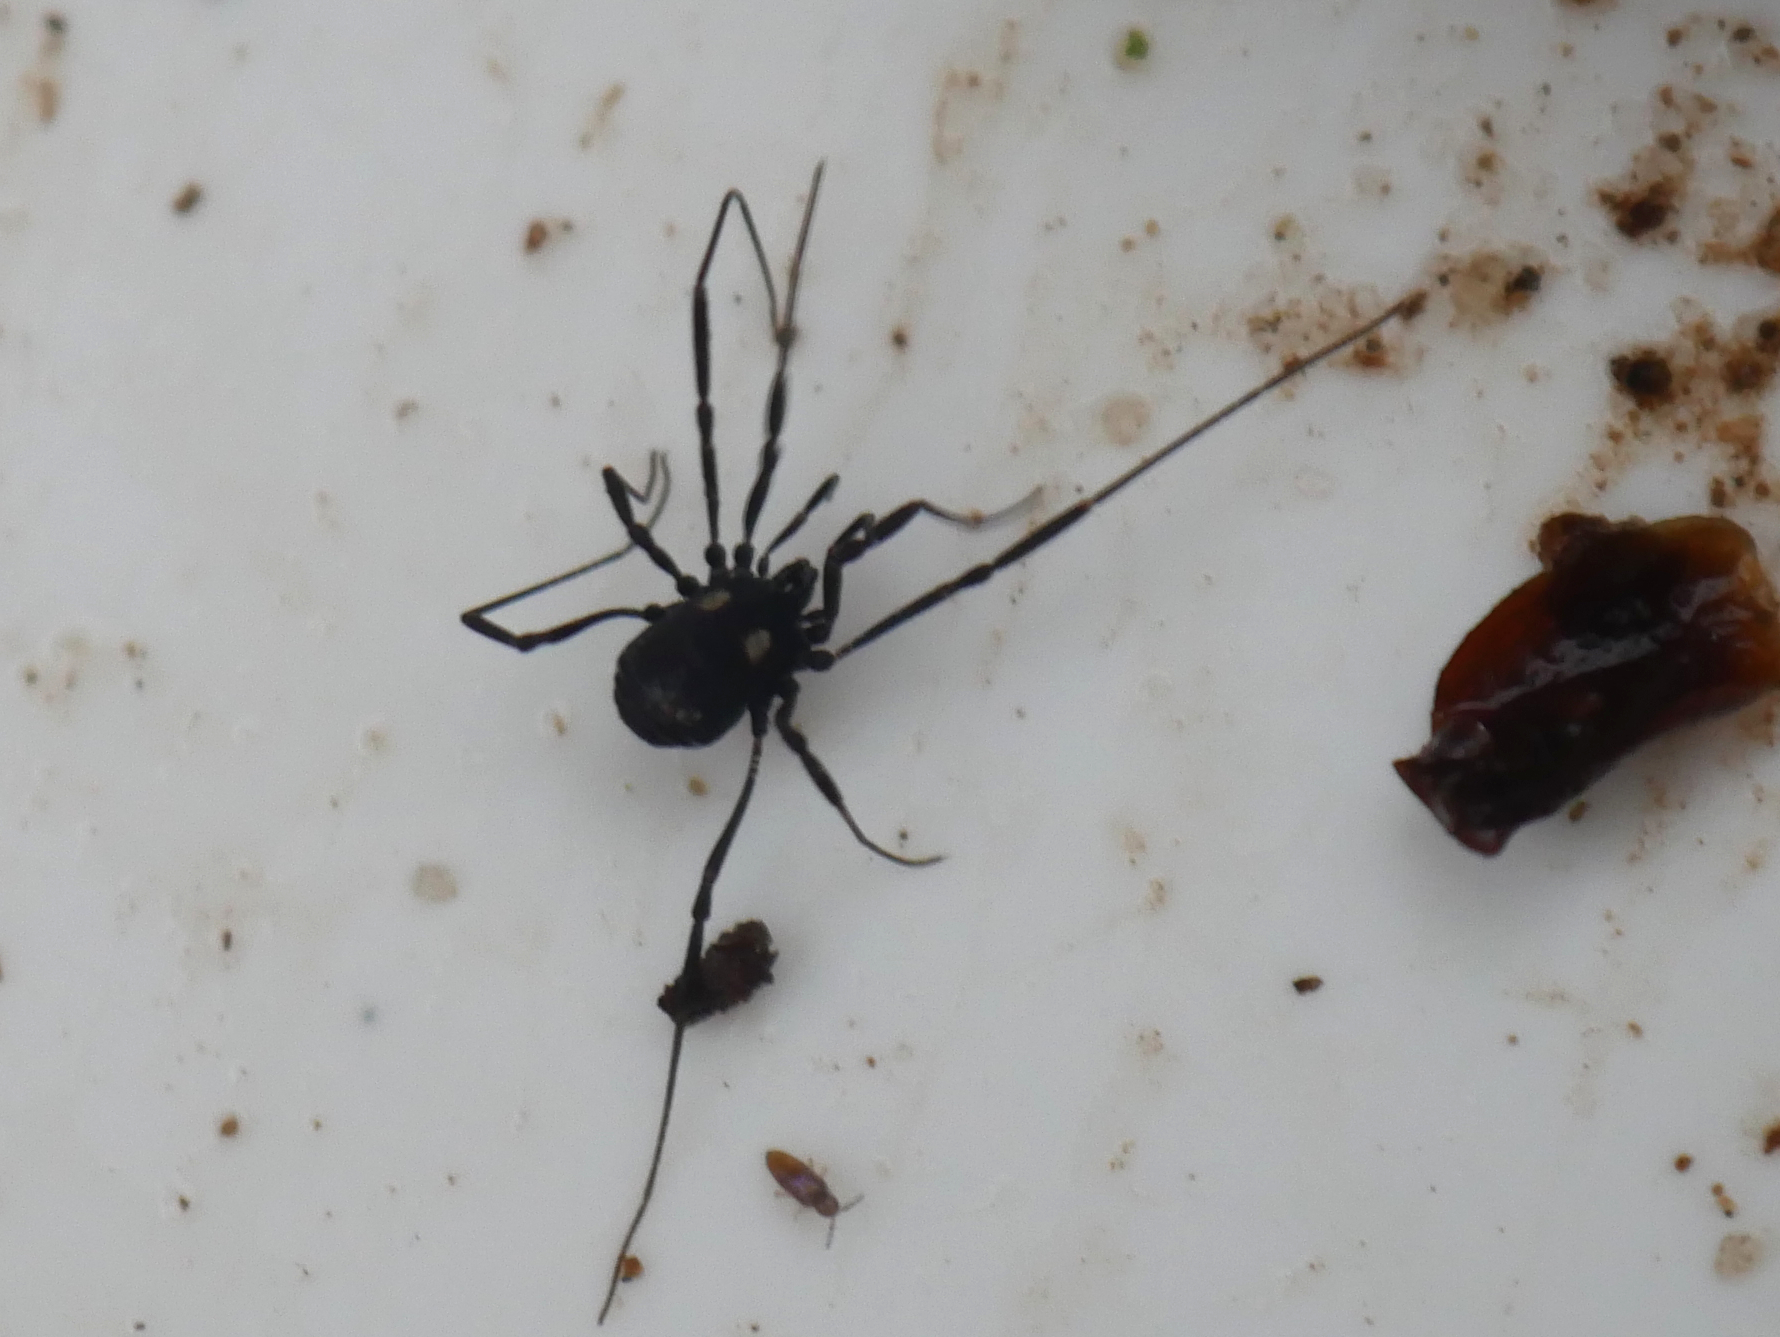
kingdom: Animalia
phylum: Arthropoda
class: Arachnida
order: Opiliones
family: Nemastomatidae
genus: Nemastoma
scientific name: Nemastoma lugubre
